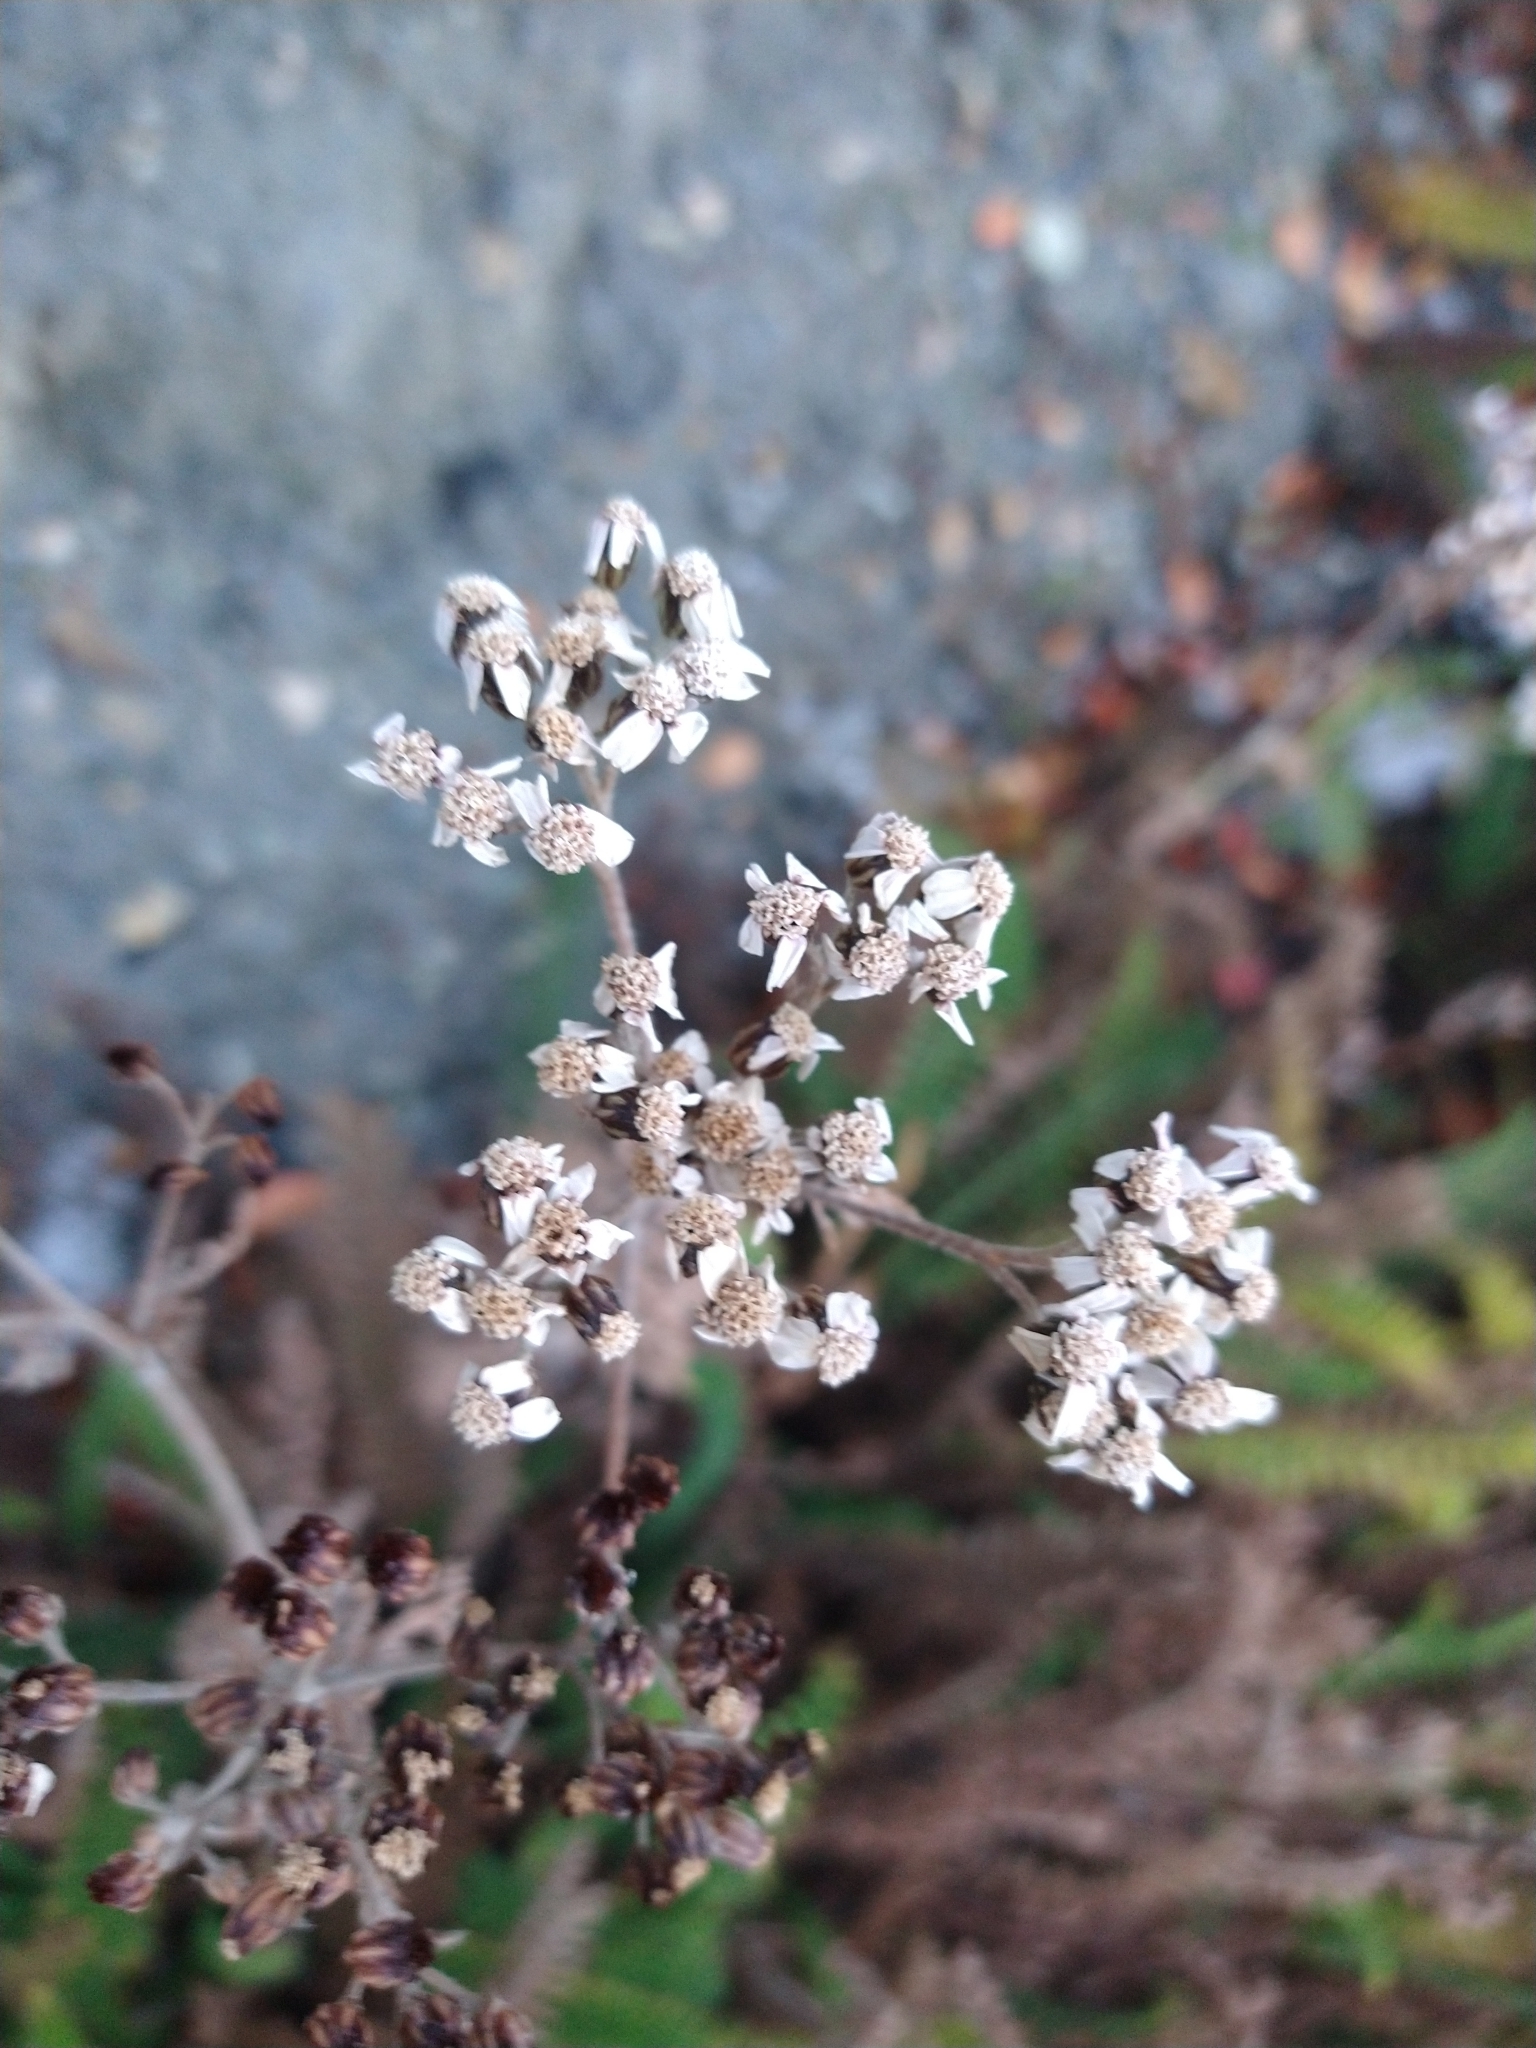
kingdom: Plantae
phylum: Tracheophyta
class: Magnoliopsida
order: Asterales
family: Asteraceae
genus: Achillea
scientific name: Achillea millefolium
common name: Yarrow
